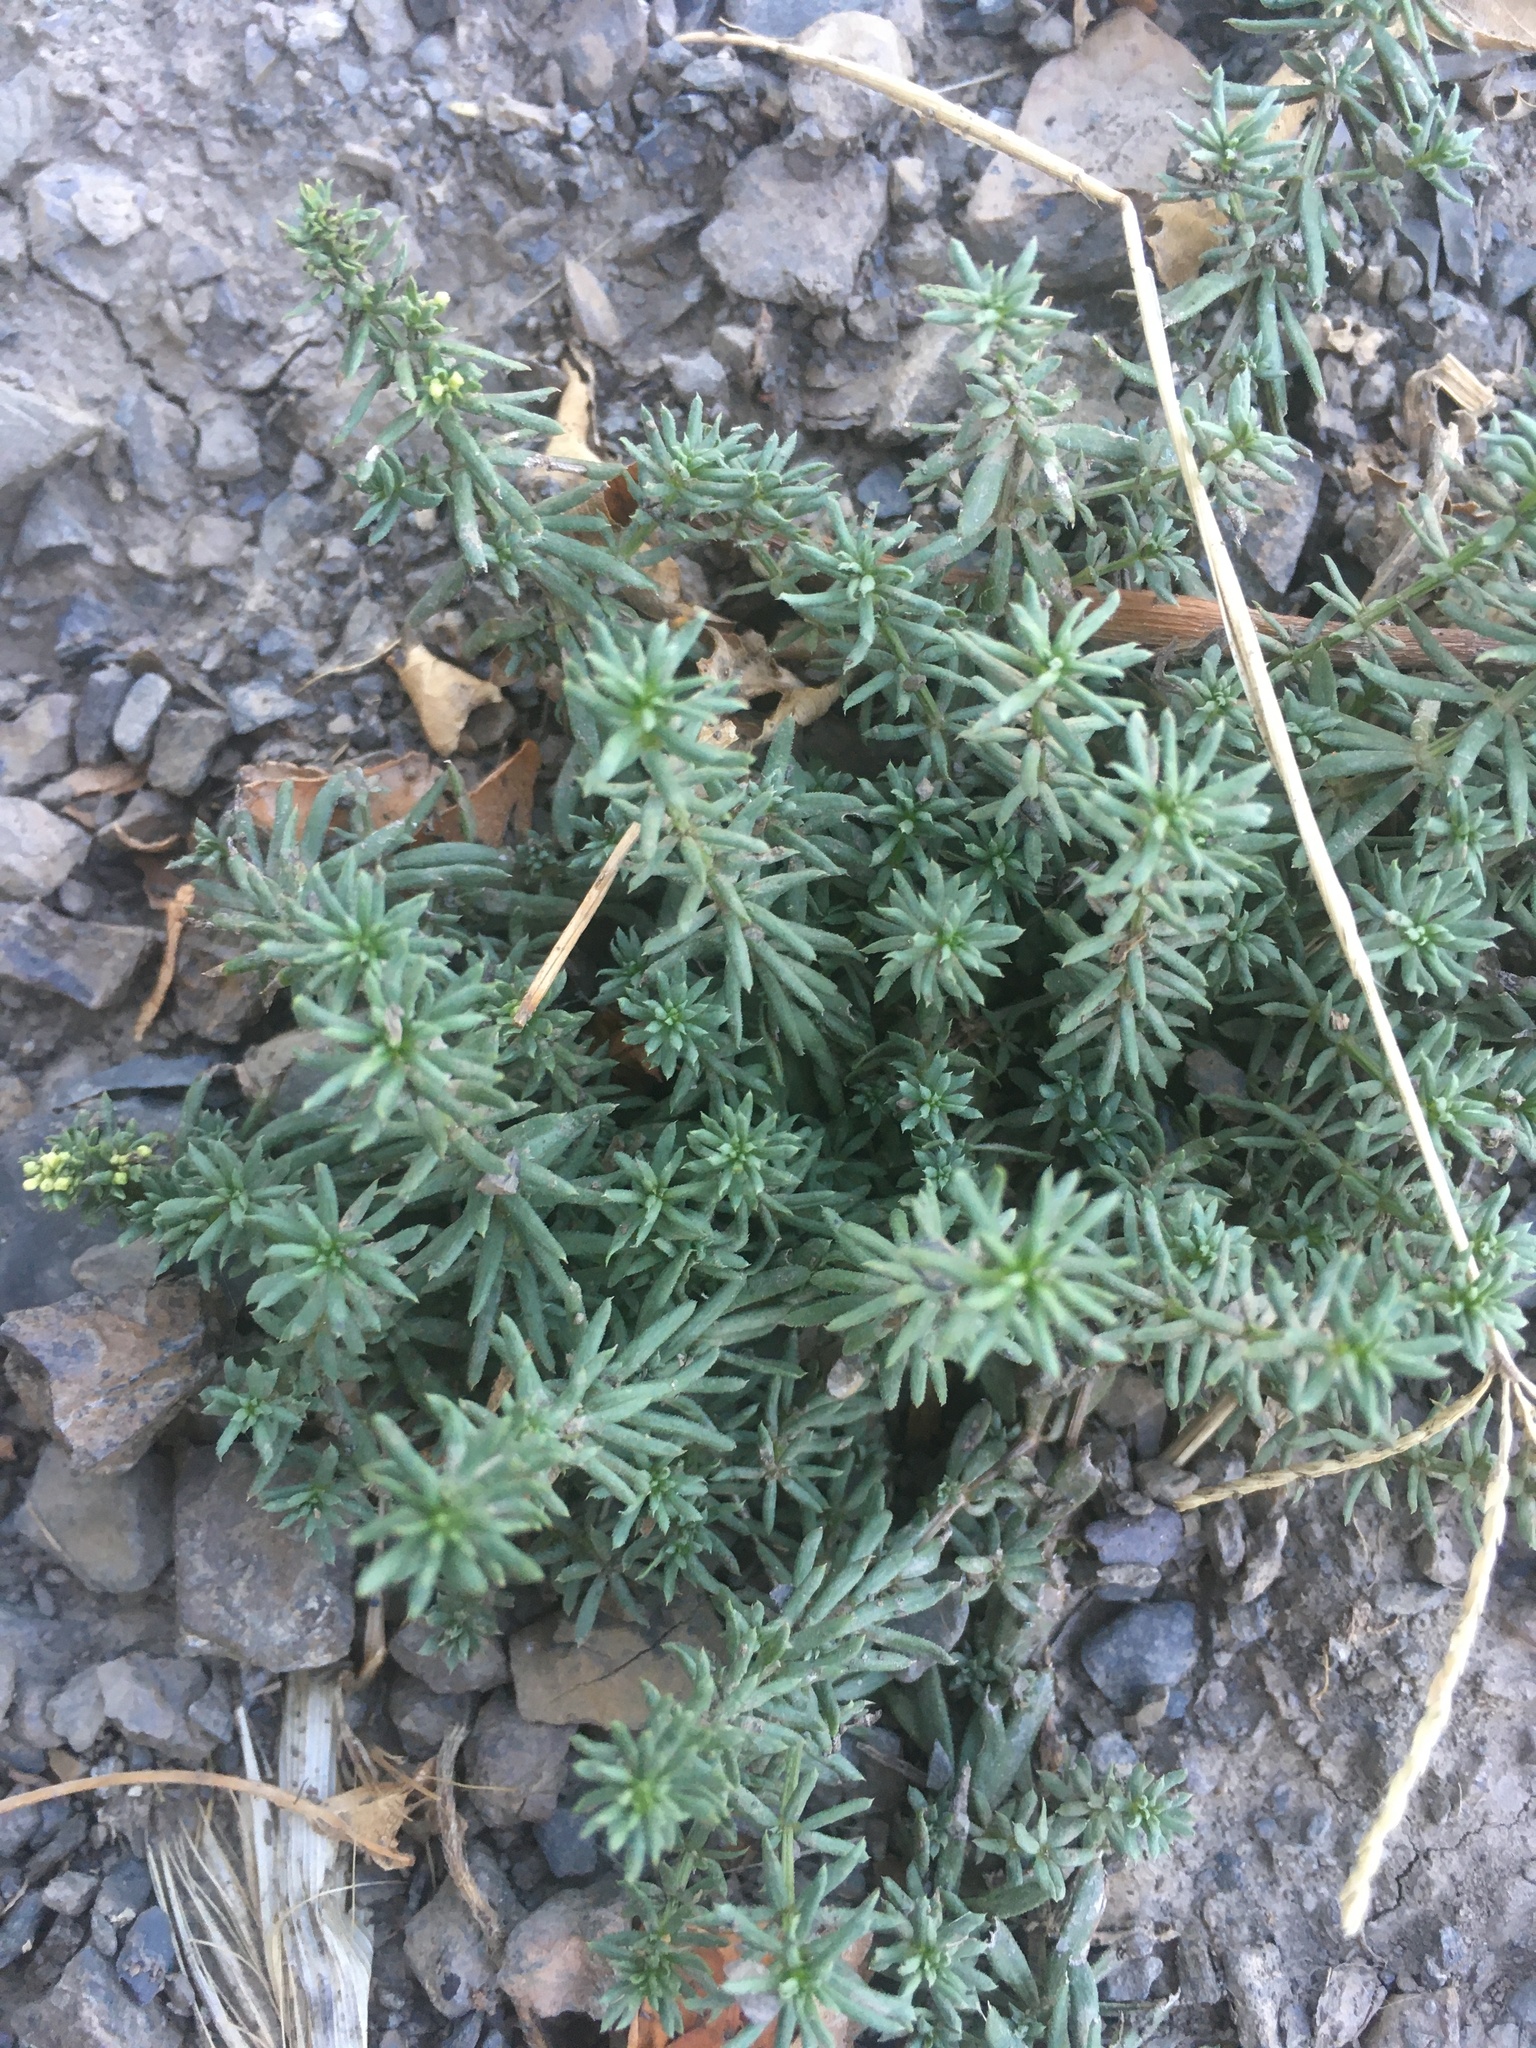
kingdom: Plantae
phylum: Tracheophyta
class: Magnoliopsida
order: Saxifragales
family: Crassulaceae
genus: Petrosedum
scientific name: Petrosedum rupestre
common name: Jenny's stonecrop
